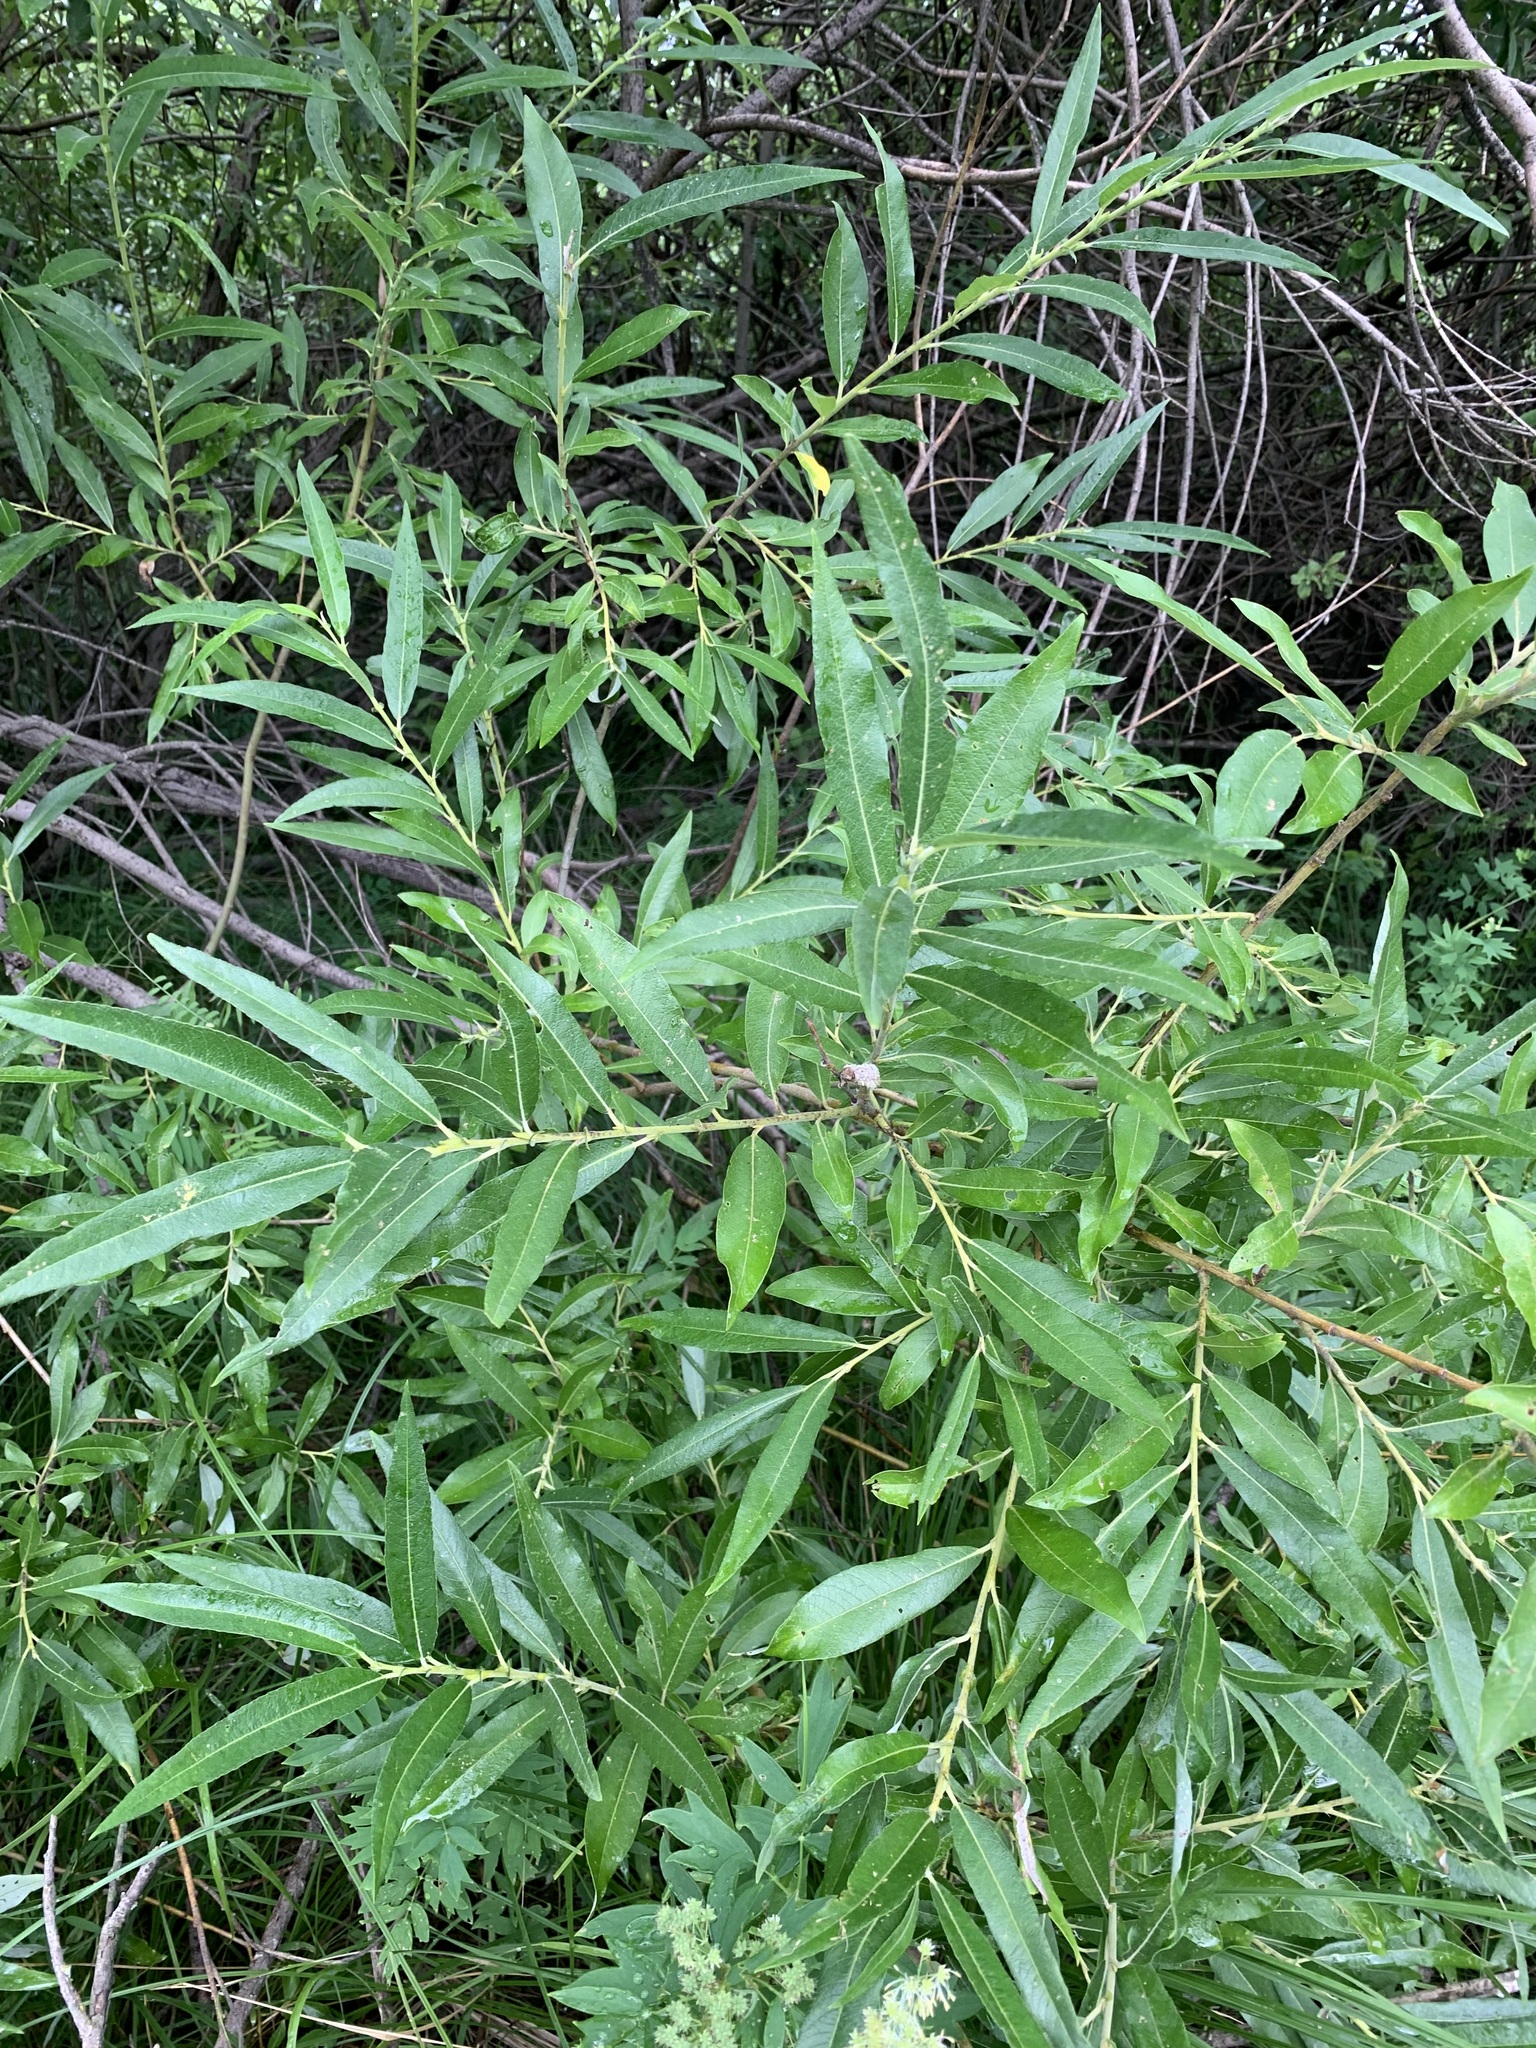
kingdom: Plantae
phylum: Tracheophyta
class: Magnoliopsida
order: Malpighiales
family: Salicaceae
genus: Salix
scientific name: Salix gmelinii
